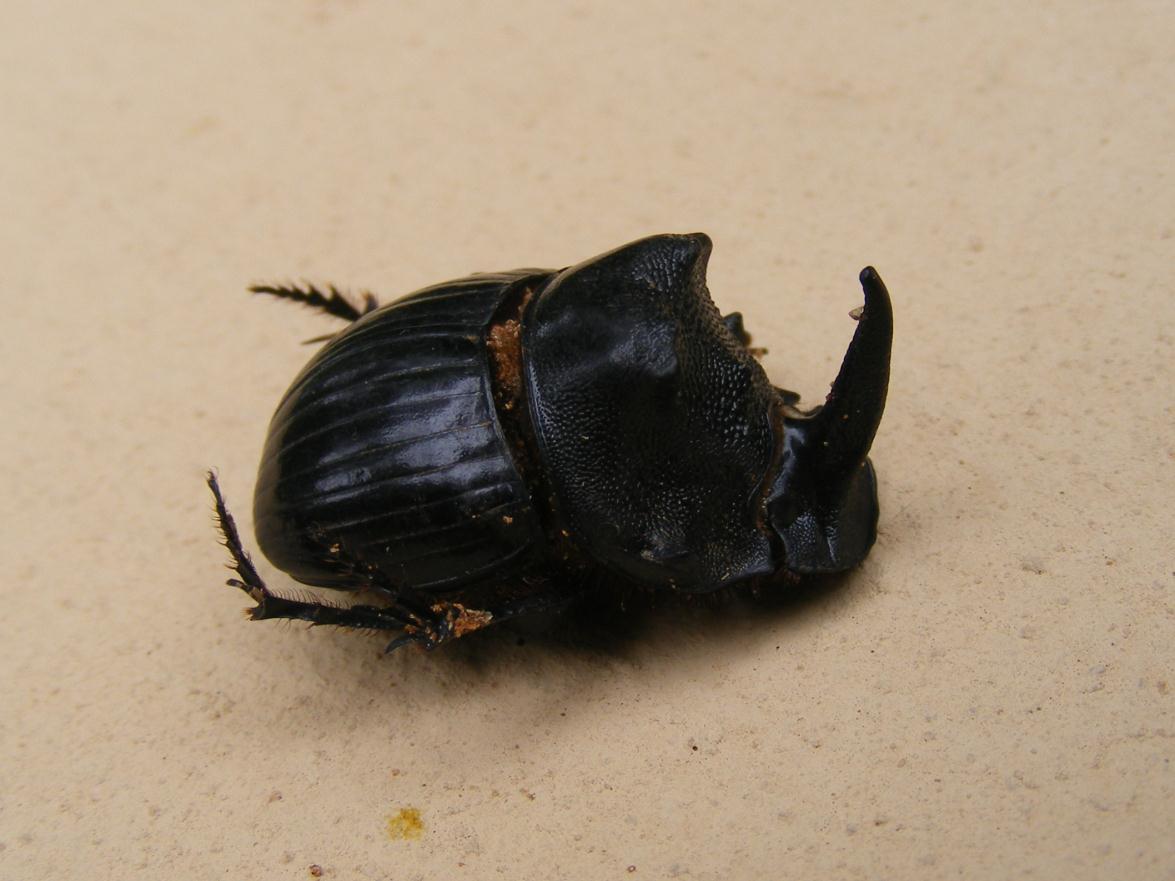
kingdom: Animalia
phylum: Arthropoda
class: Insecta
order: Coleoptera
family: Scarabaeidae
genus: Copris
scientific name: Copris elphenor
